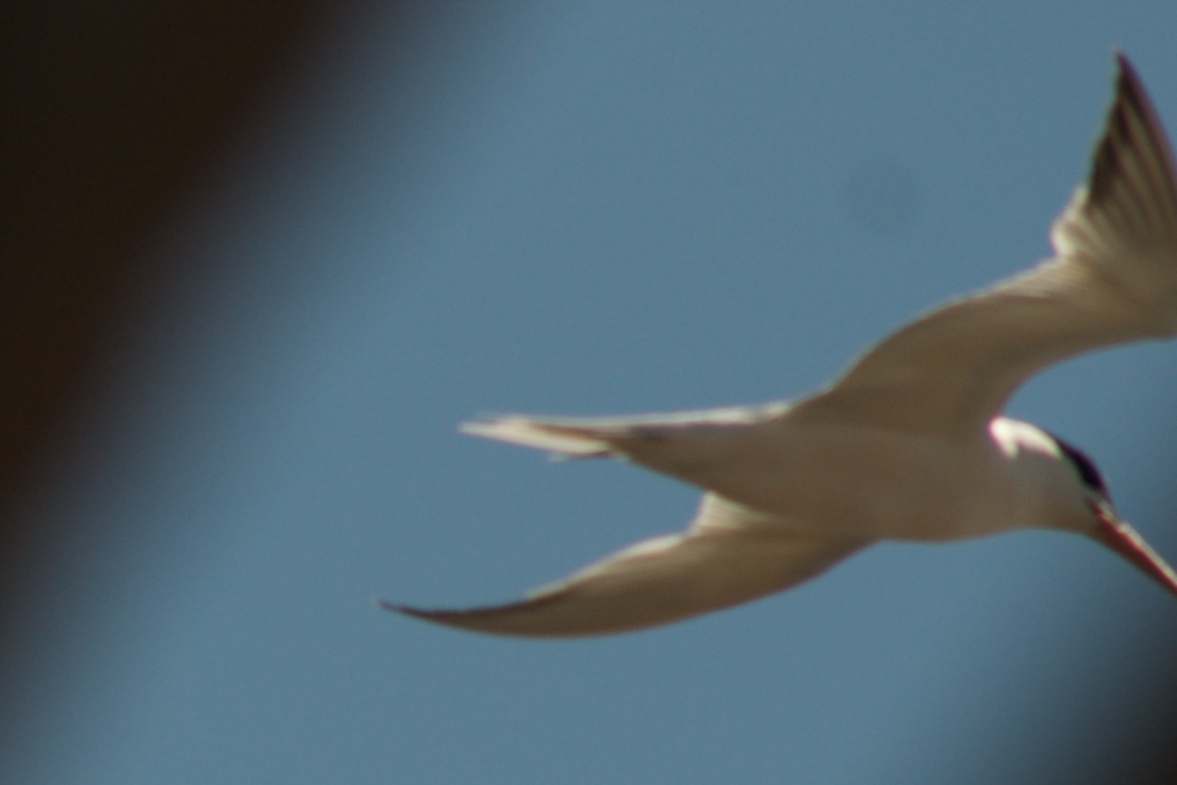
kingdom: Animalia
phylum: Chordata
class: Aves
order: Charadriiformes
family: Laridae
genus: Thalasseus
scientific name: Thalasseus maximus
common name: Royal tern
